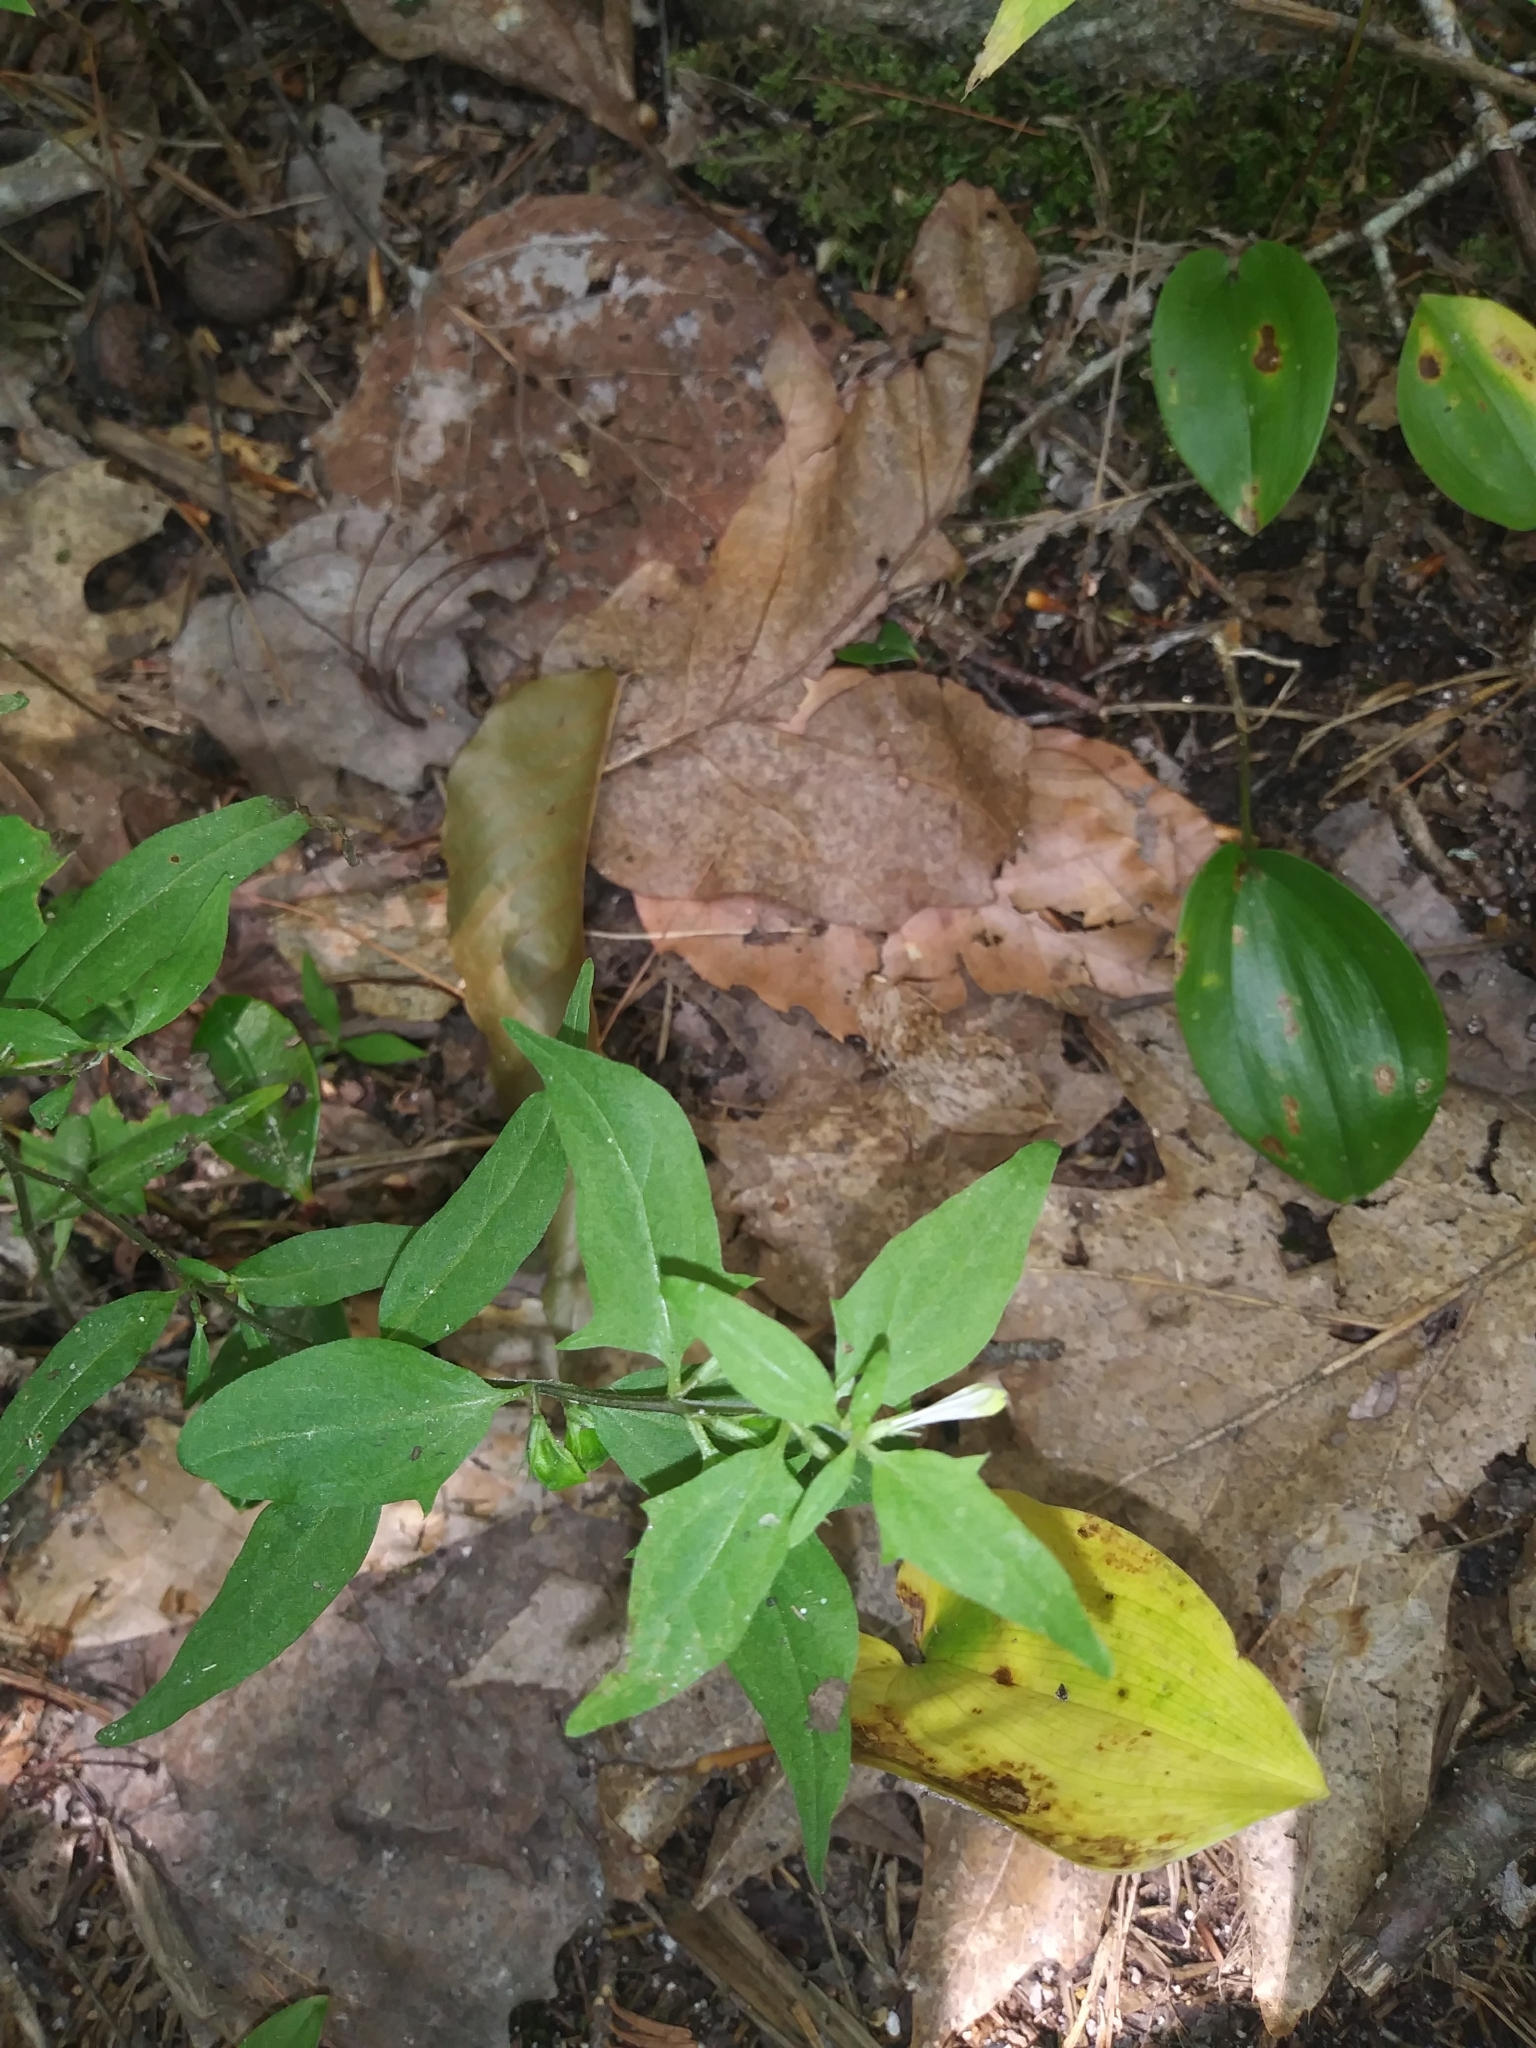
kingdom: Plantae
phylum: Tracheophyta
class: Magnoliopsida
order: Lamiales
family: Orobanchaceae
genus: Melampyrum
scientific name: Melampyrum lineare
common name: American cow-wheat
